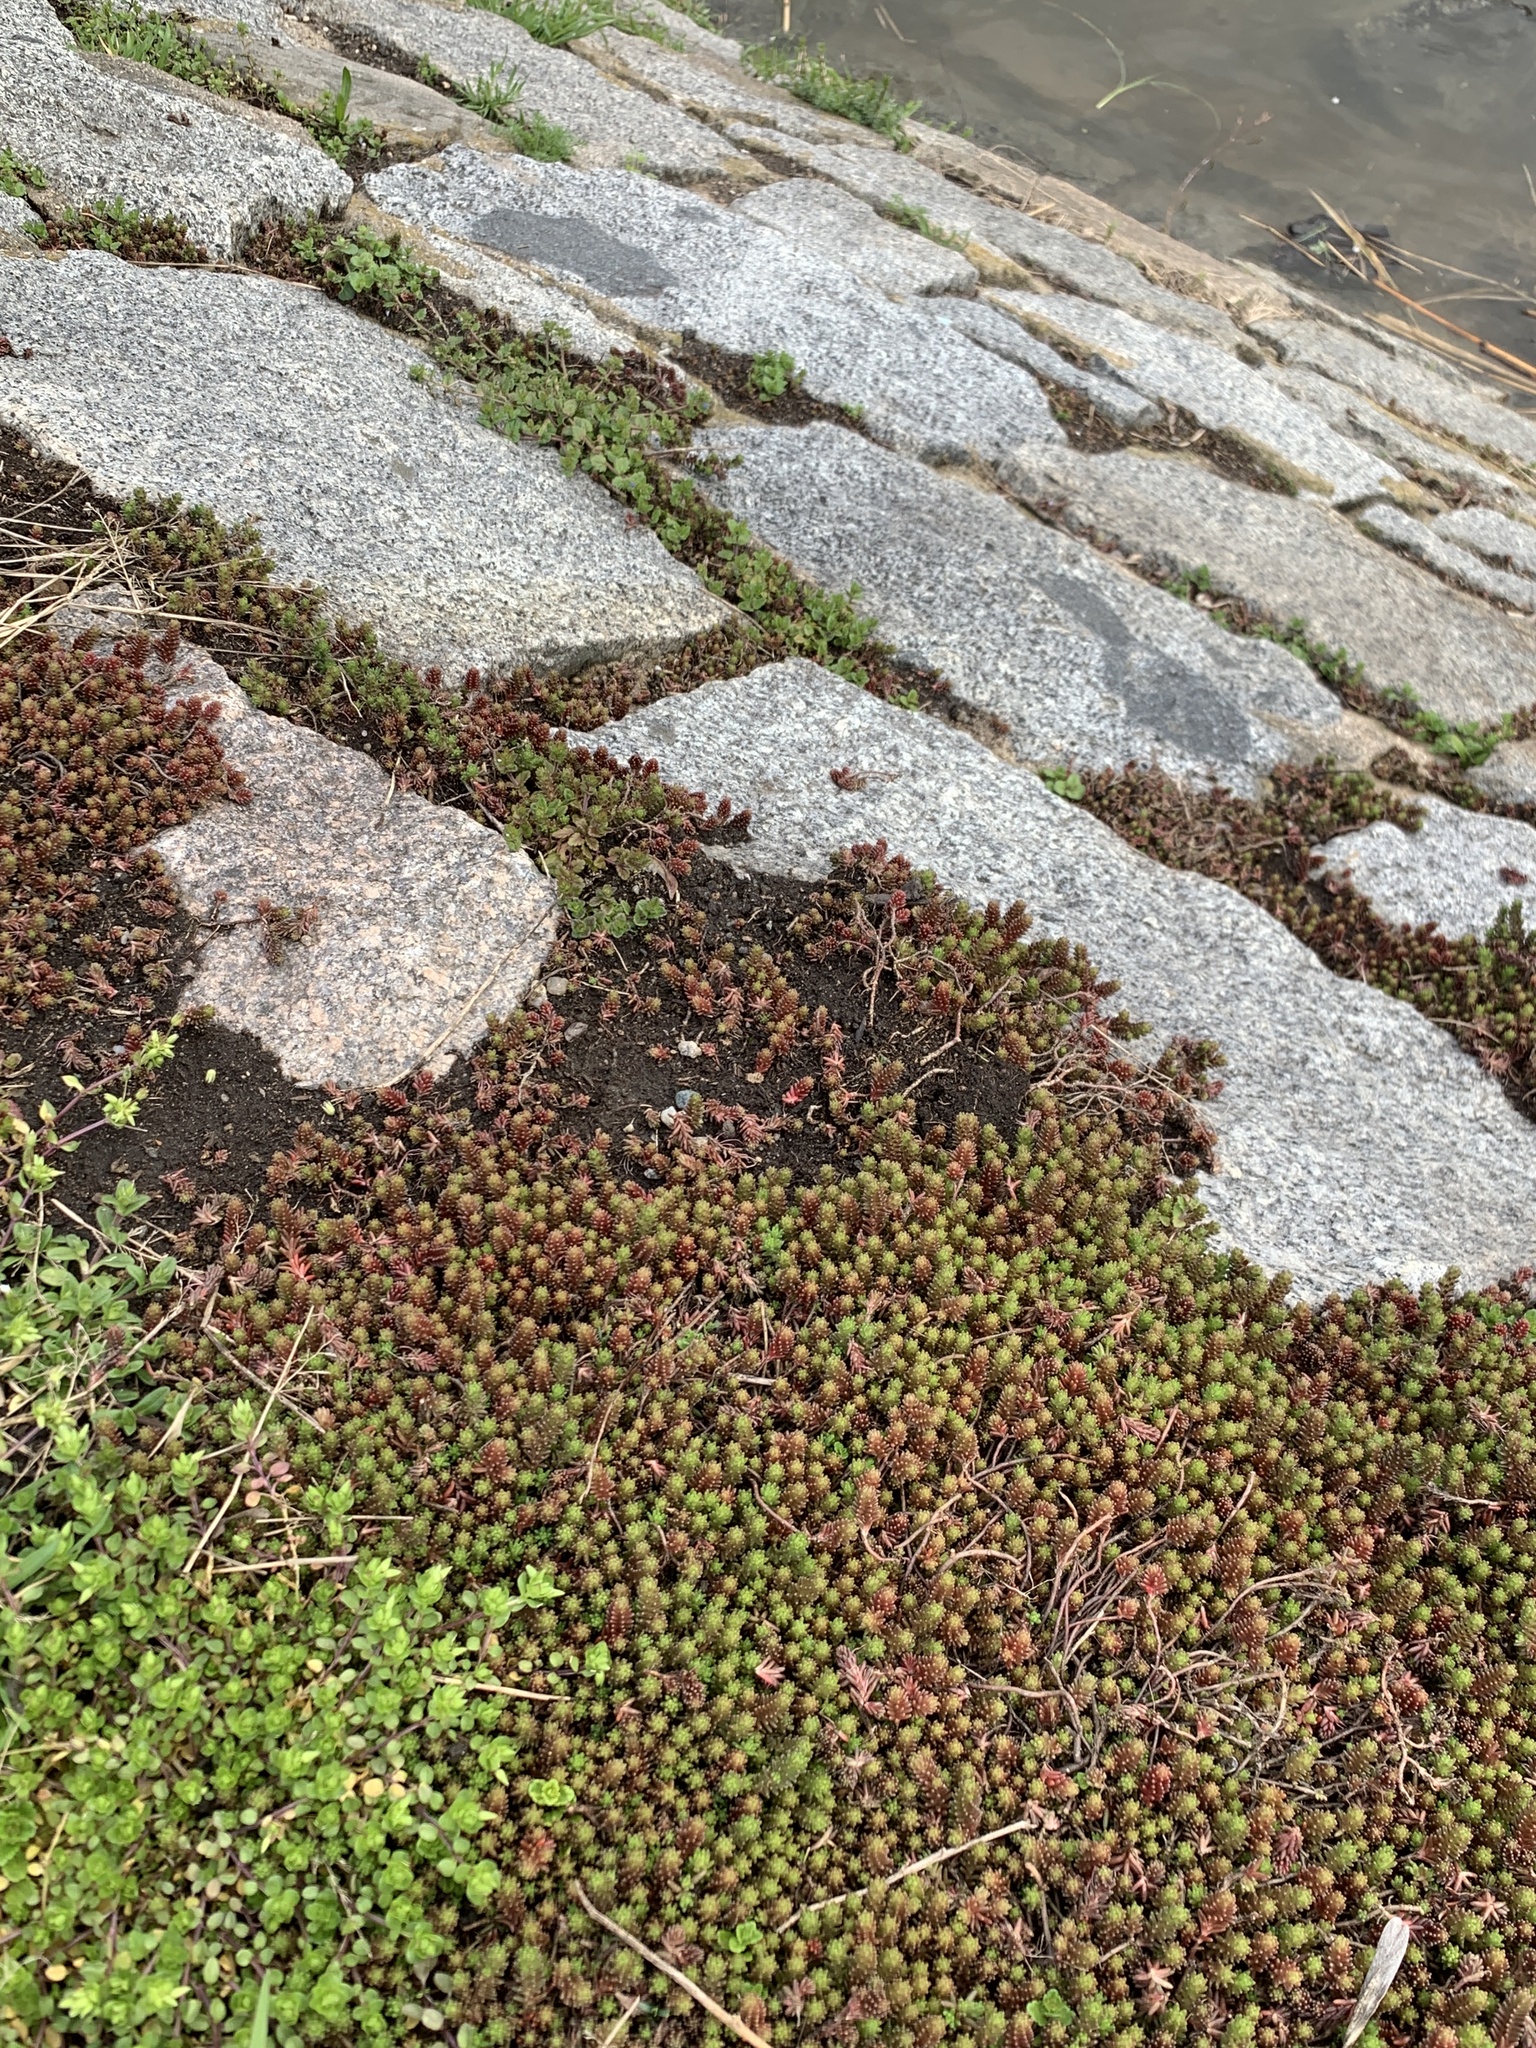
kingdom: Plantae
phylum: Tracheophyta
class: Magnoliopsida
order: Saxifragales
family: Crassulaceae
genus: Sedum
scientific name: Sedum sexangulare
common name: Tasteless stonecrop
